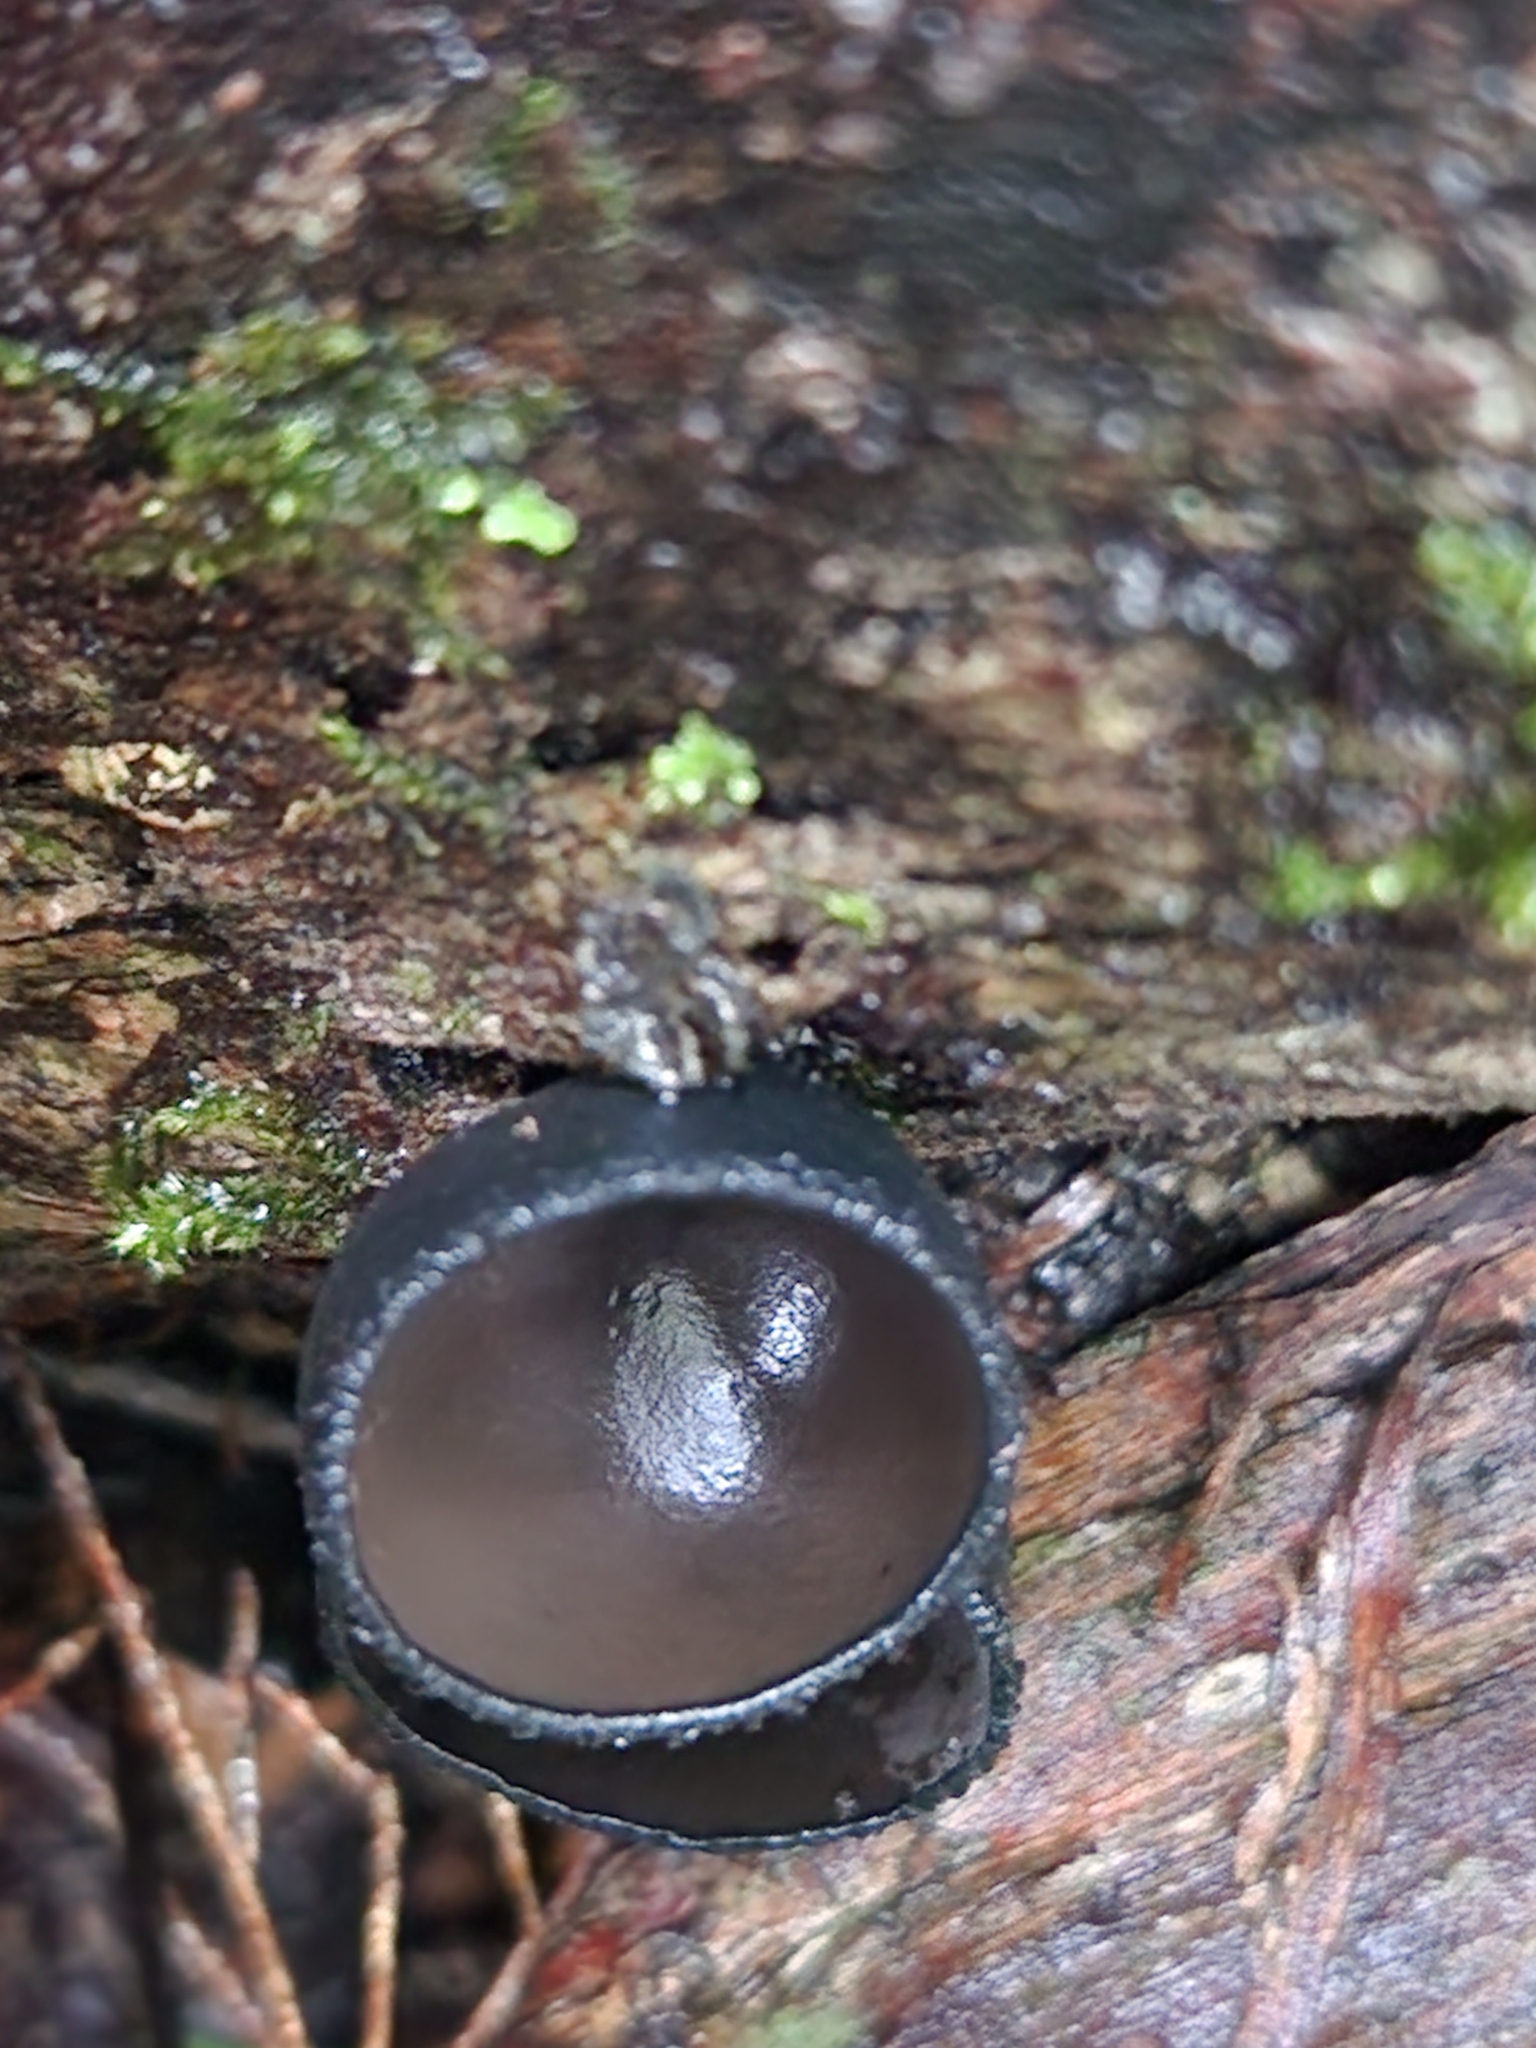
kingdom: Fungi
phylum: Ascomycota
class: Pezizomycetes
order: Pezizales
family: Sarcosomataceae
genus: Plectania
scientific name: Plectania campylospora
